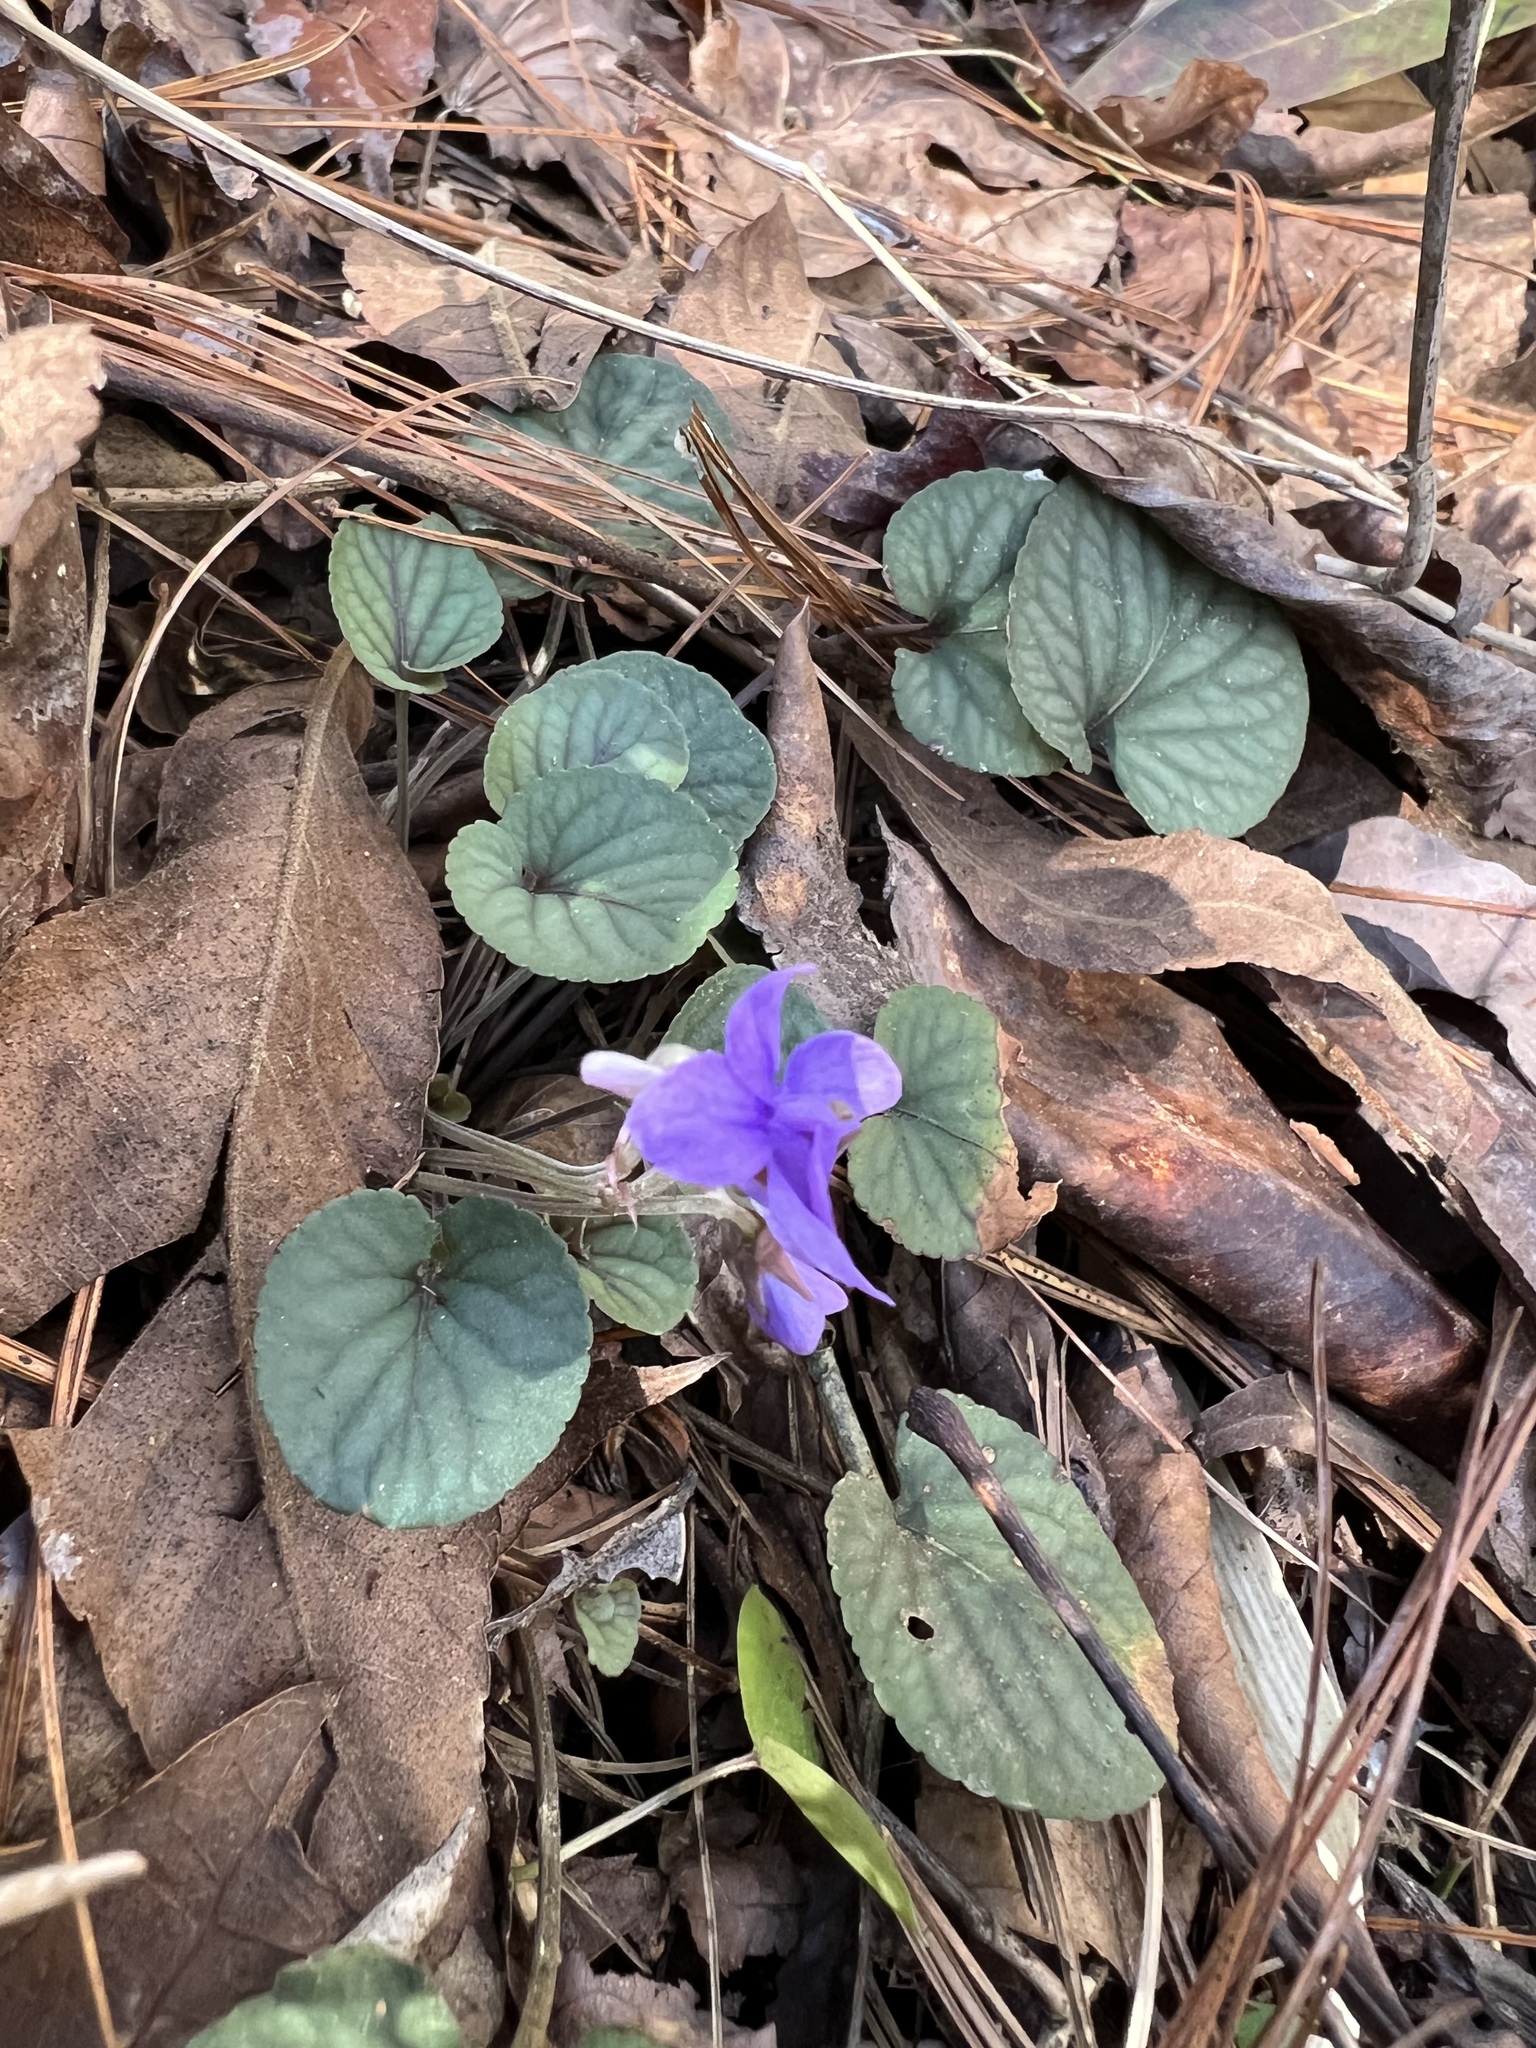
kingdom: Plantae
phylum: Tracheophyta
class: Magnoliopsida
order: Malpighiales
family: Violaceae
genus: Viola
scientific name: Viola walteri
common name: Prostrate southern violet
